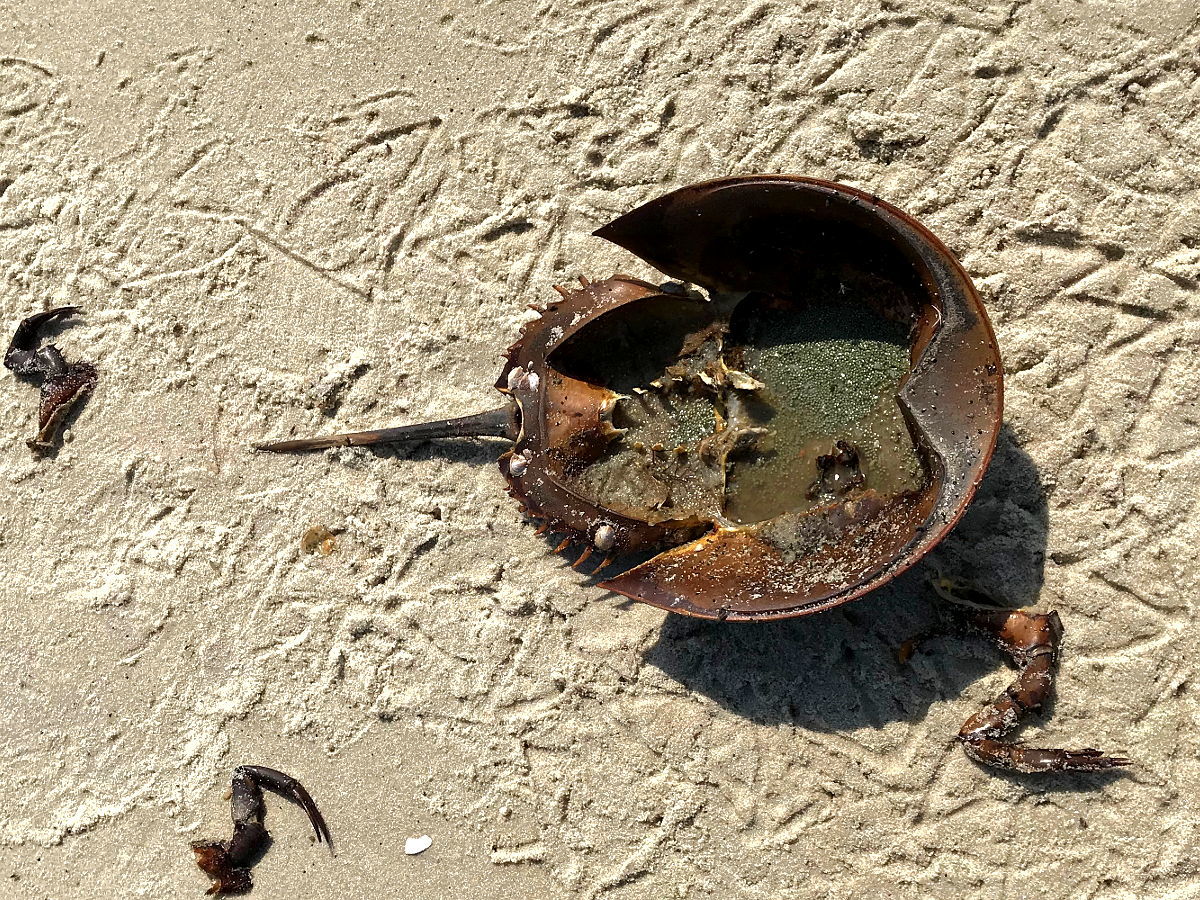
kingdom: Animalia
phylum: Arthropoda
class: Merostomata
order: Xiphosurida
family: Limulidae
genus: Limulus
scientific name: Limulus polyphemus
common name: Horseshoe crab
